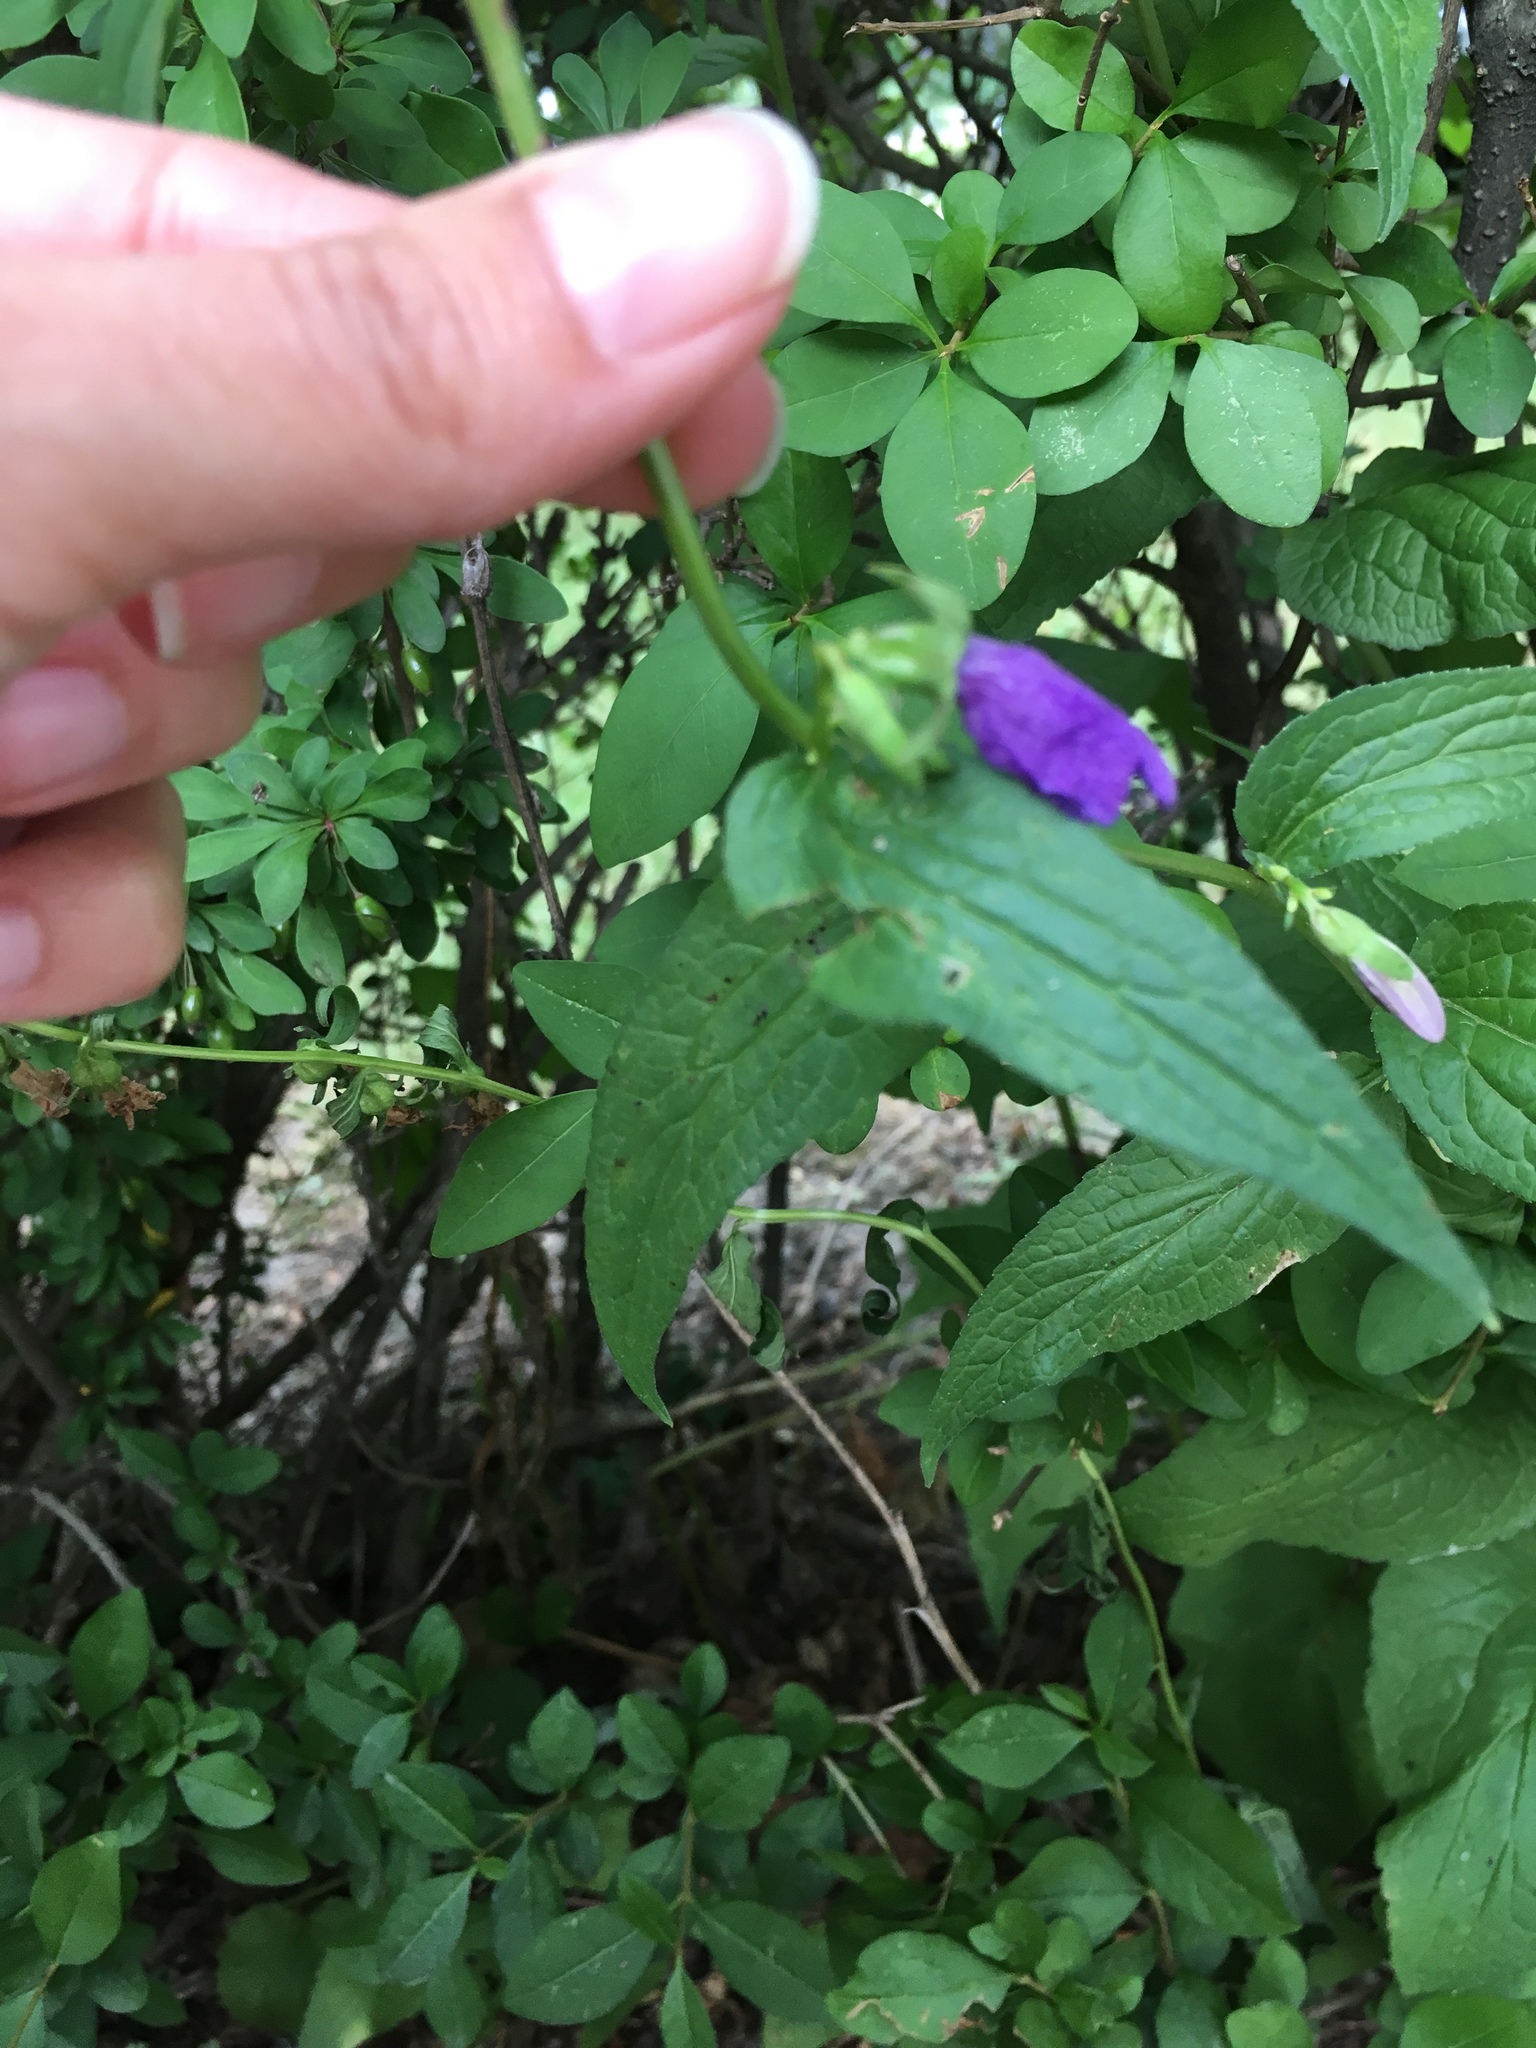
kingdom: Plantae
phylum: Tracheophyta
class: Magnoliopsida
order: Asterales
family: Campanulaceae
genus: Campanula
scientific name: Campanula rapunculoides
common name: Creeping bellflower
